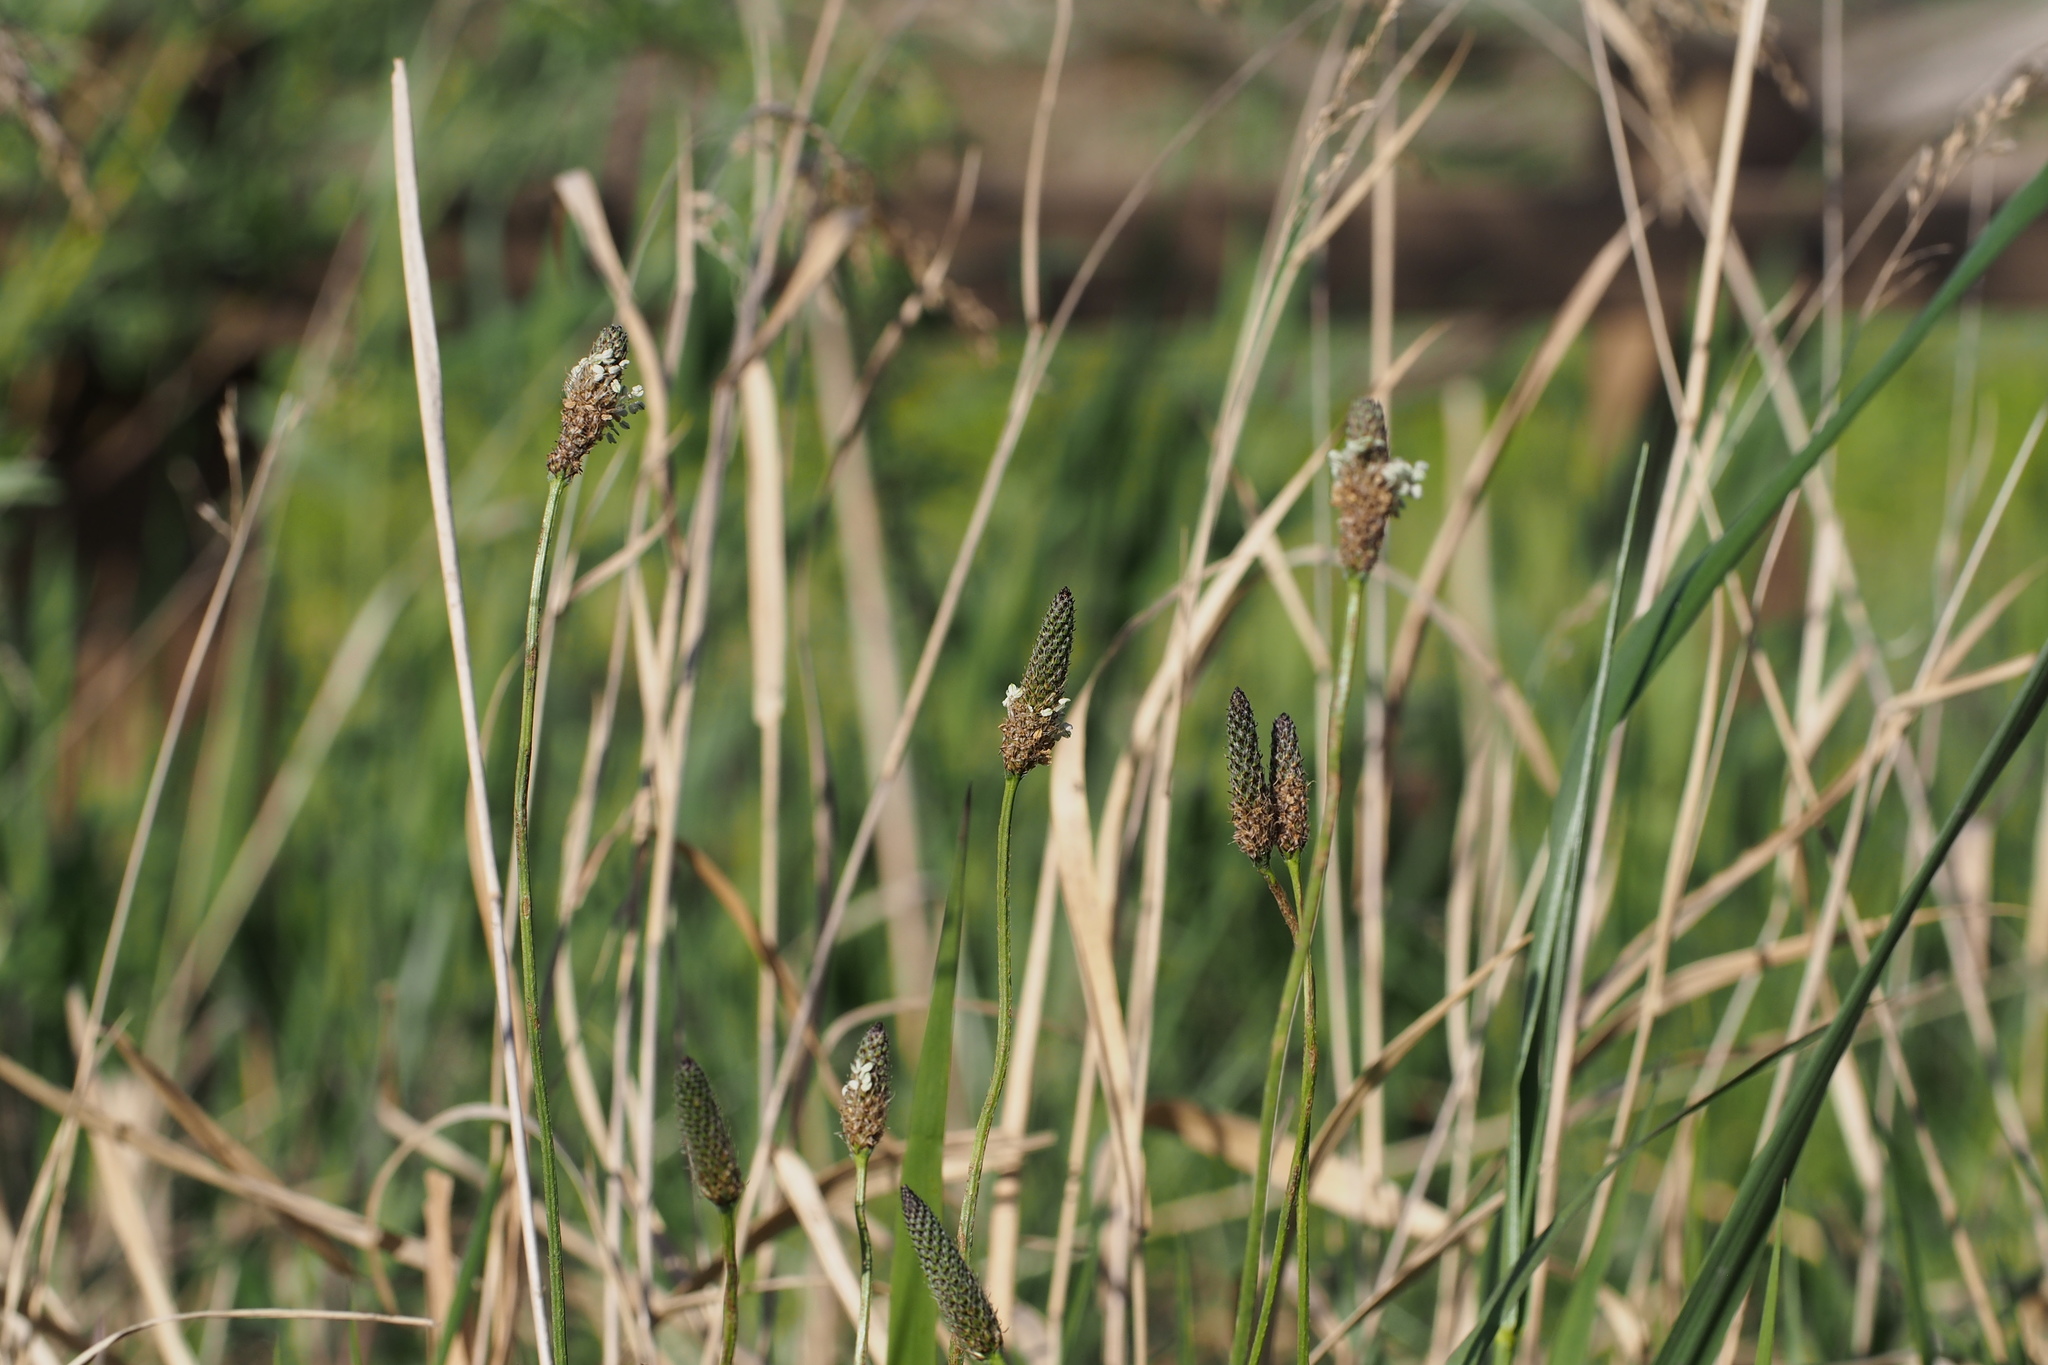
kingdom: Plantae
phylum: Tracheophyta
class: Magnoliopsida
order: Lamiales
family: Plantaginaceae
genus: Plantago
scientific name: Plantago lanceolata
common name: Ribwort plantain
